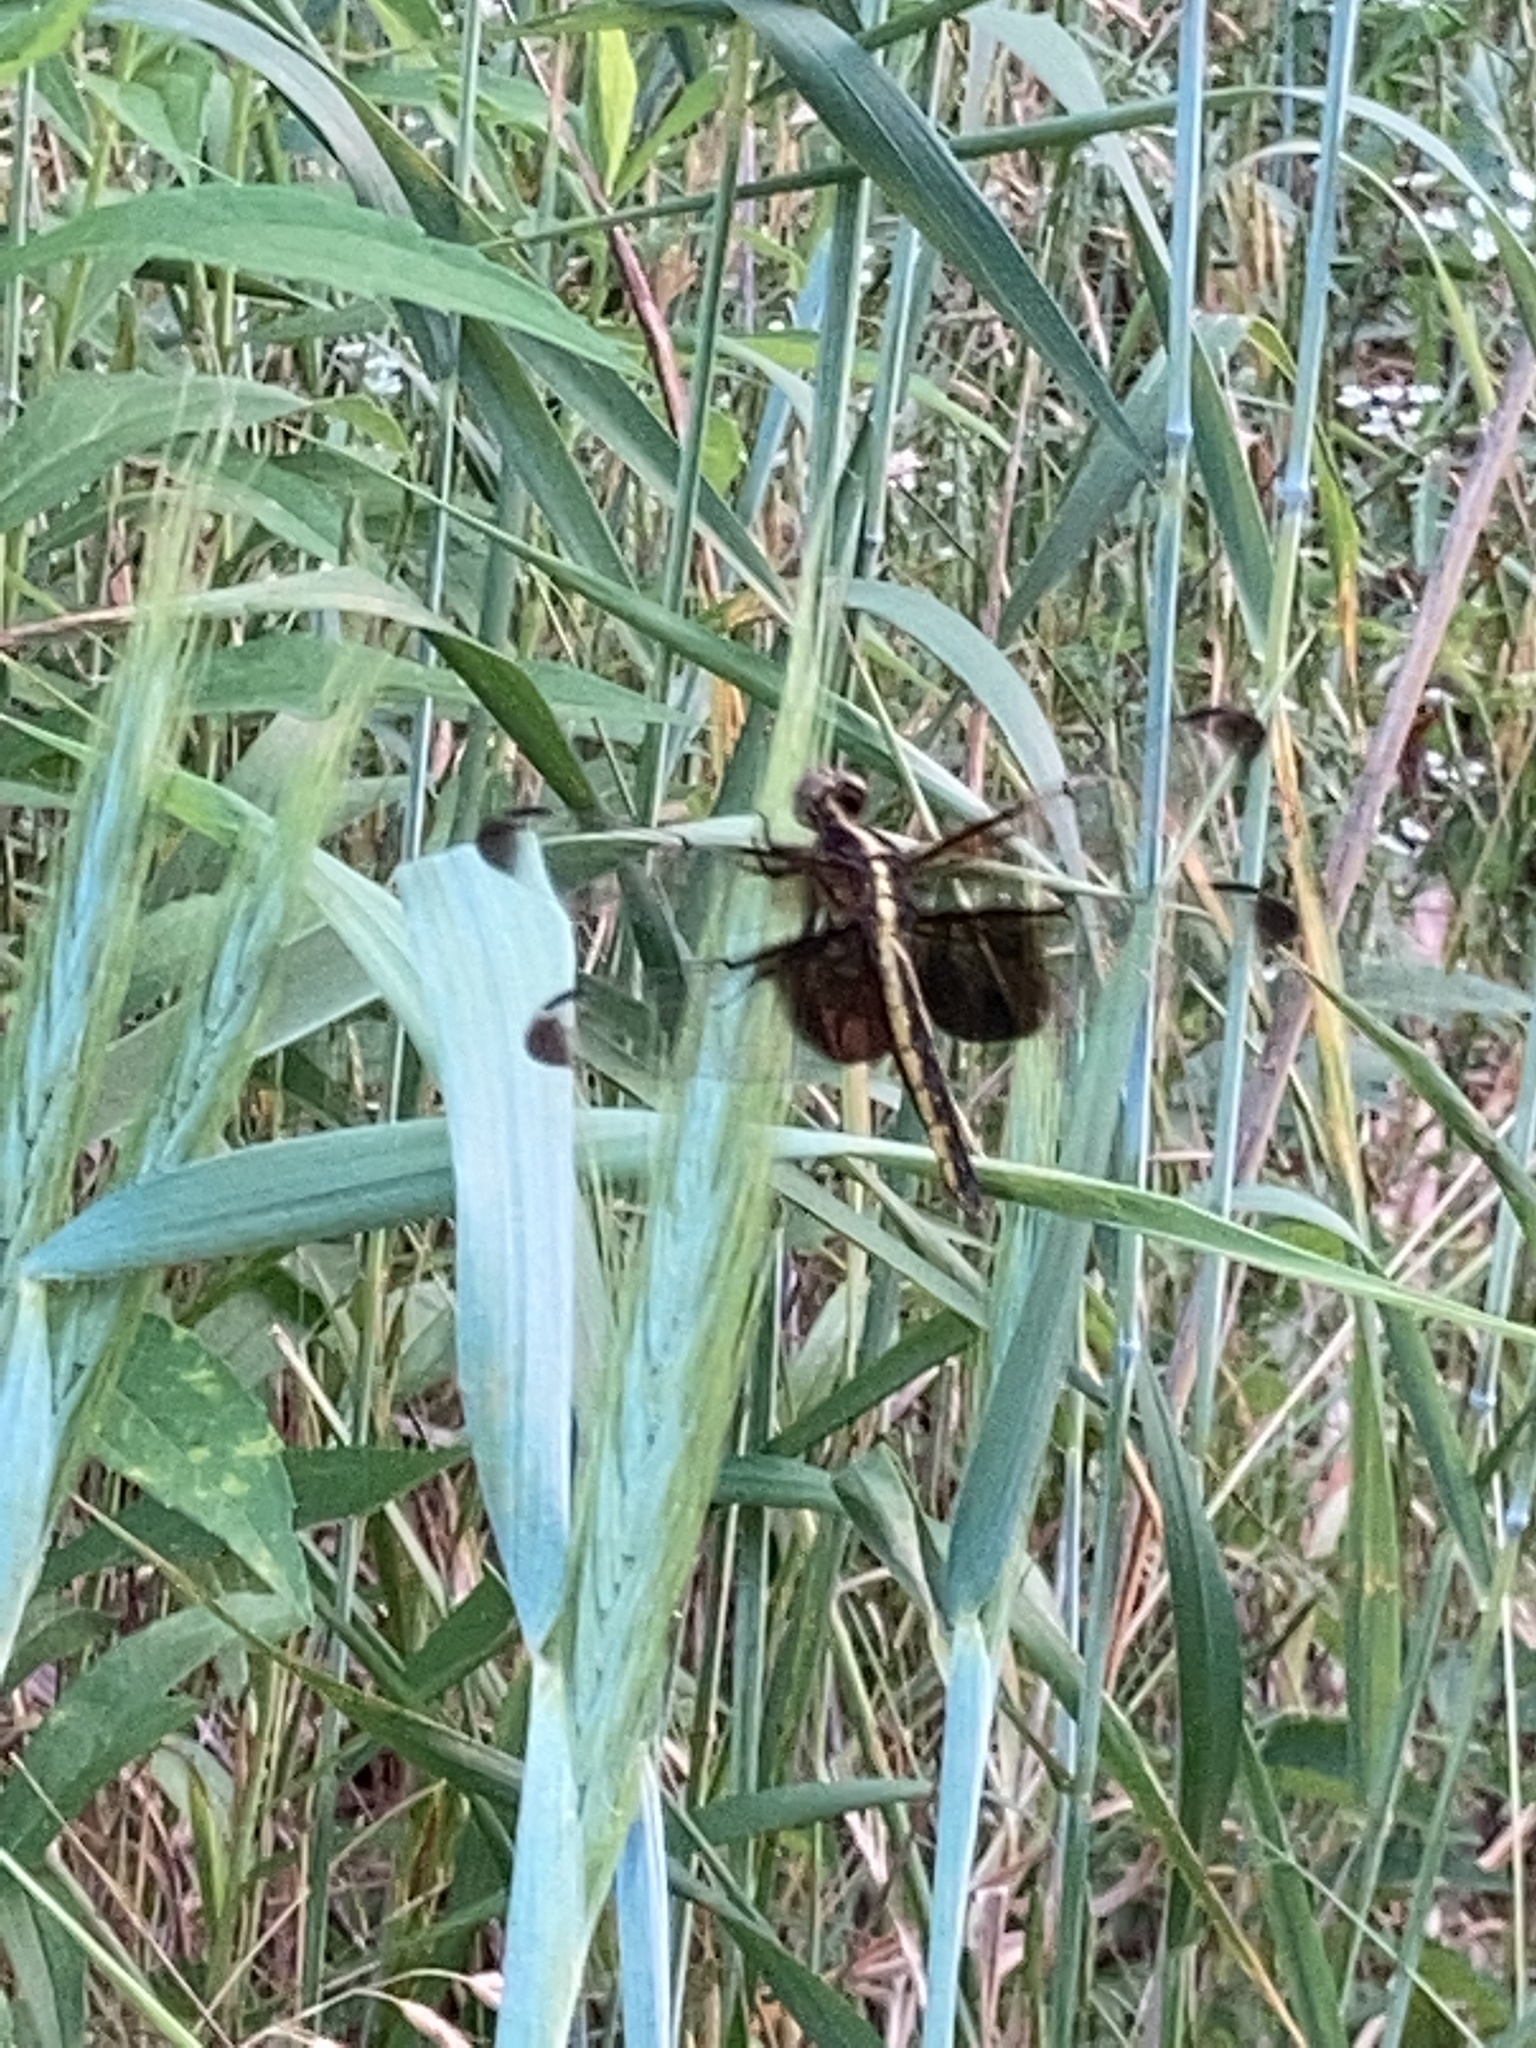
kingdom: Animalia
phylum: Arthropoda
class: Insecta
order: Odonata
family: Libellulidae
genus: Libellula
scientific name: Libellula luctuosa
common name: Widow skimmer
